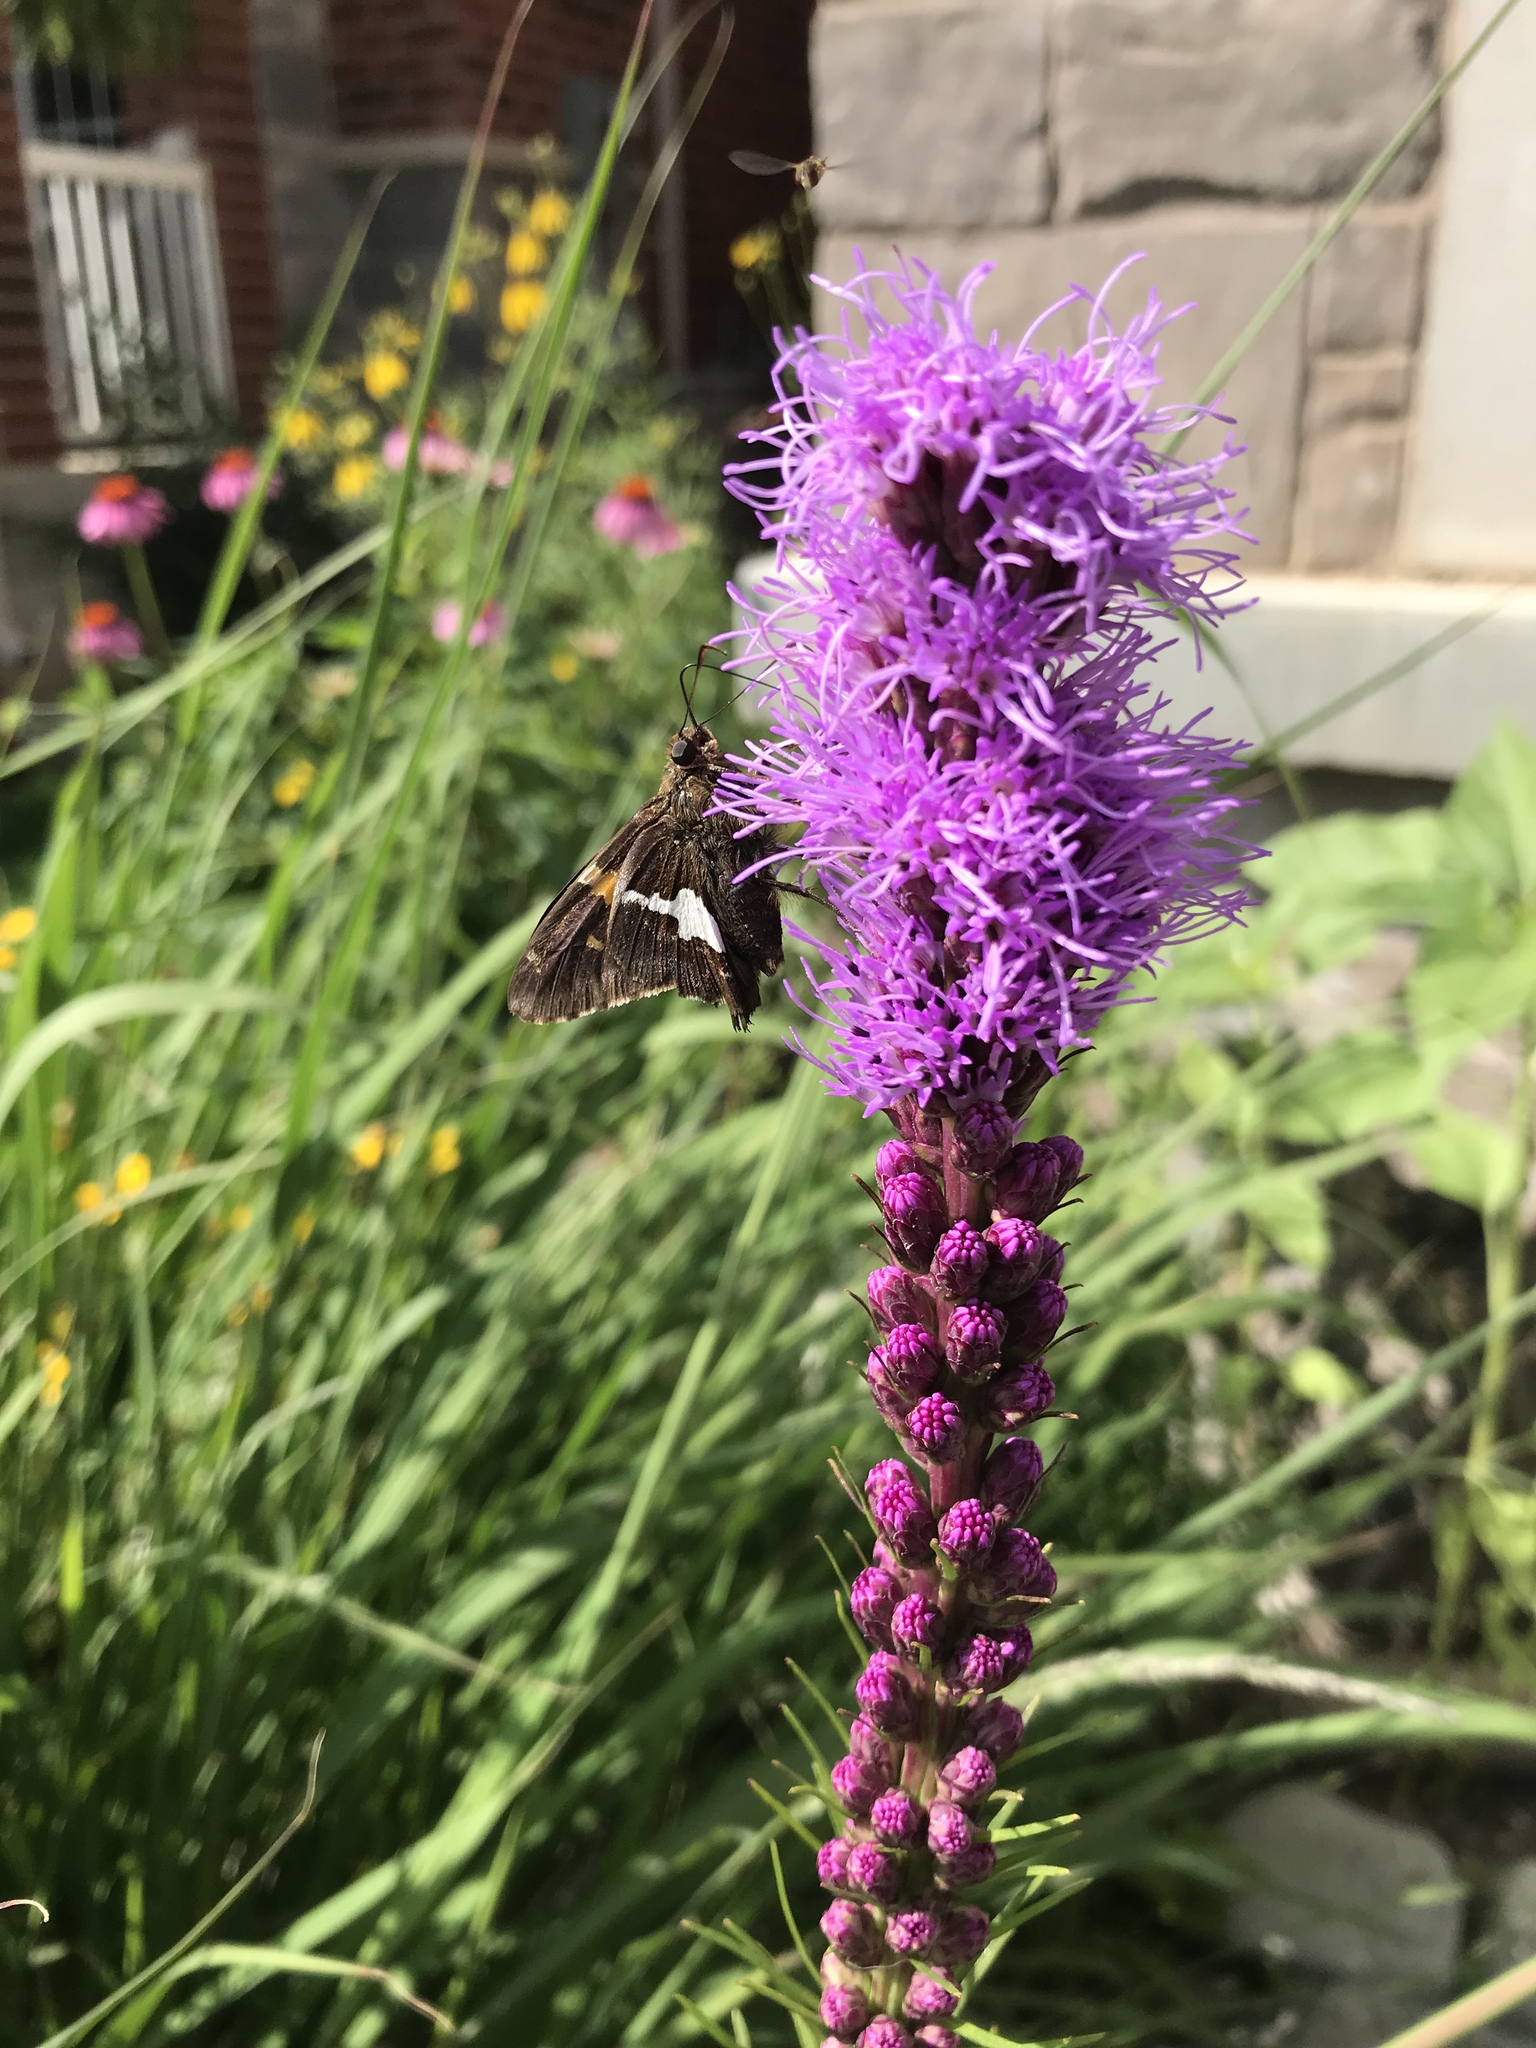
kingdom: Animalia
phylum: Arthropoda
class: Insecta
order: Lepidoptera
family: Hesperiidae
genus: Epargyreus
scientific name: Epargyreus clarus
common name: Silver-spotted skipper
